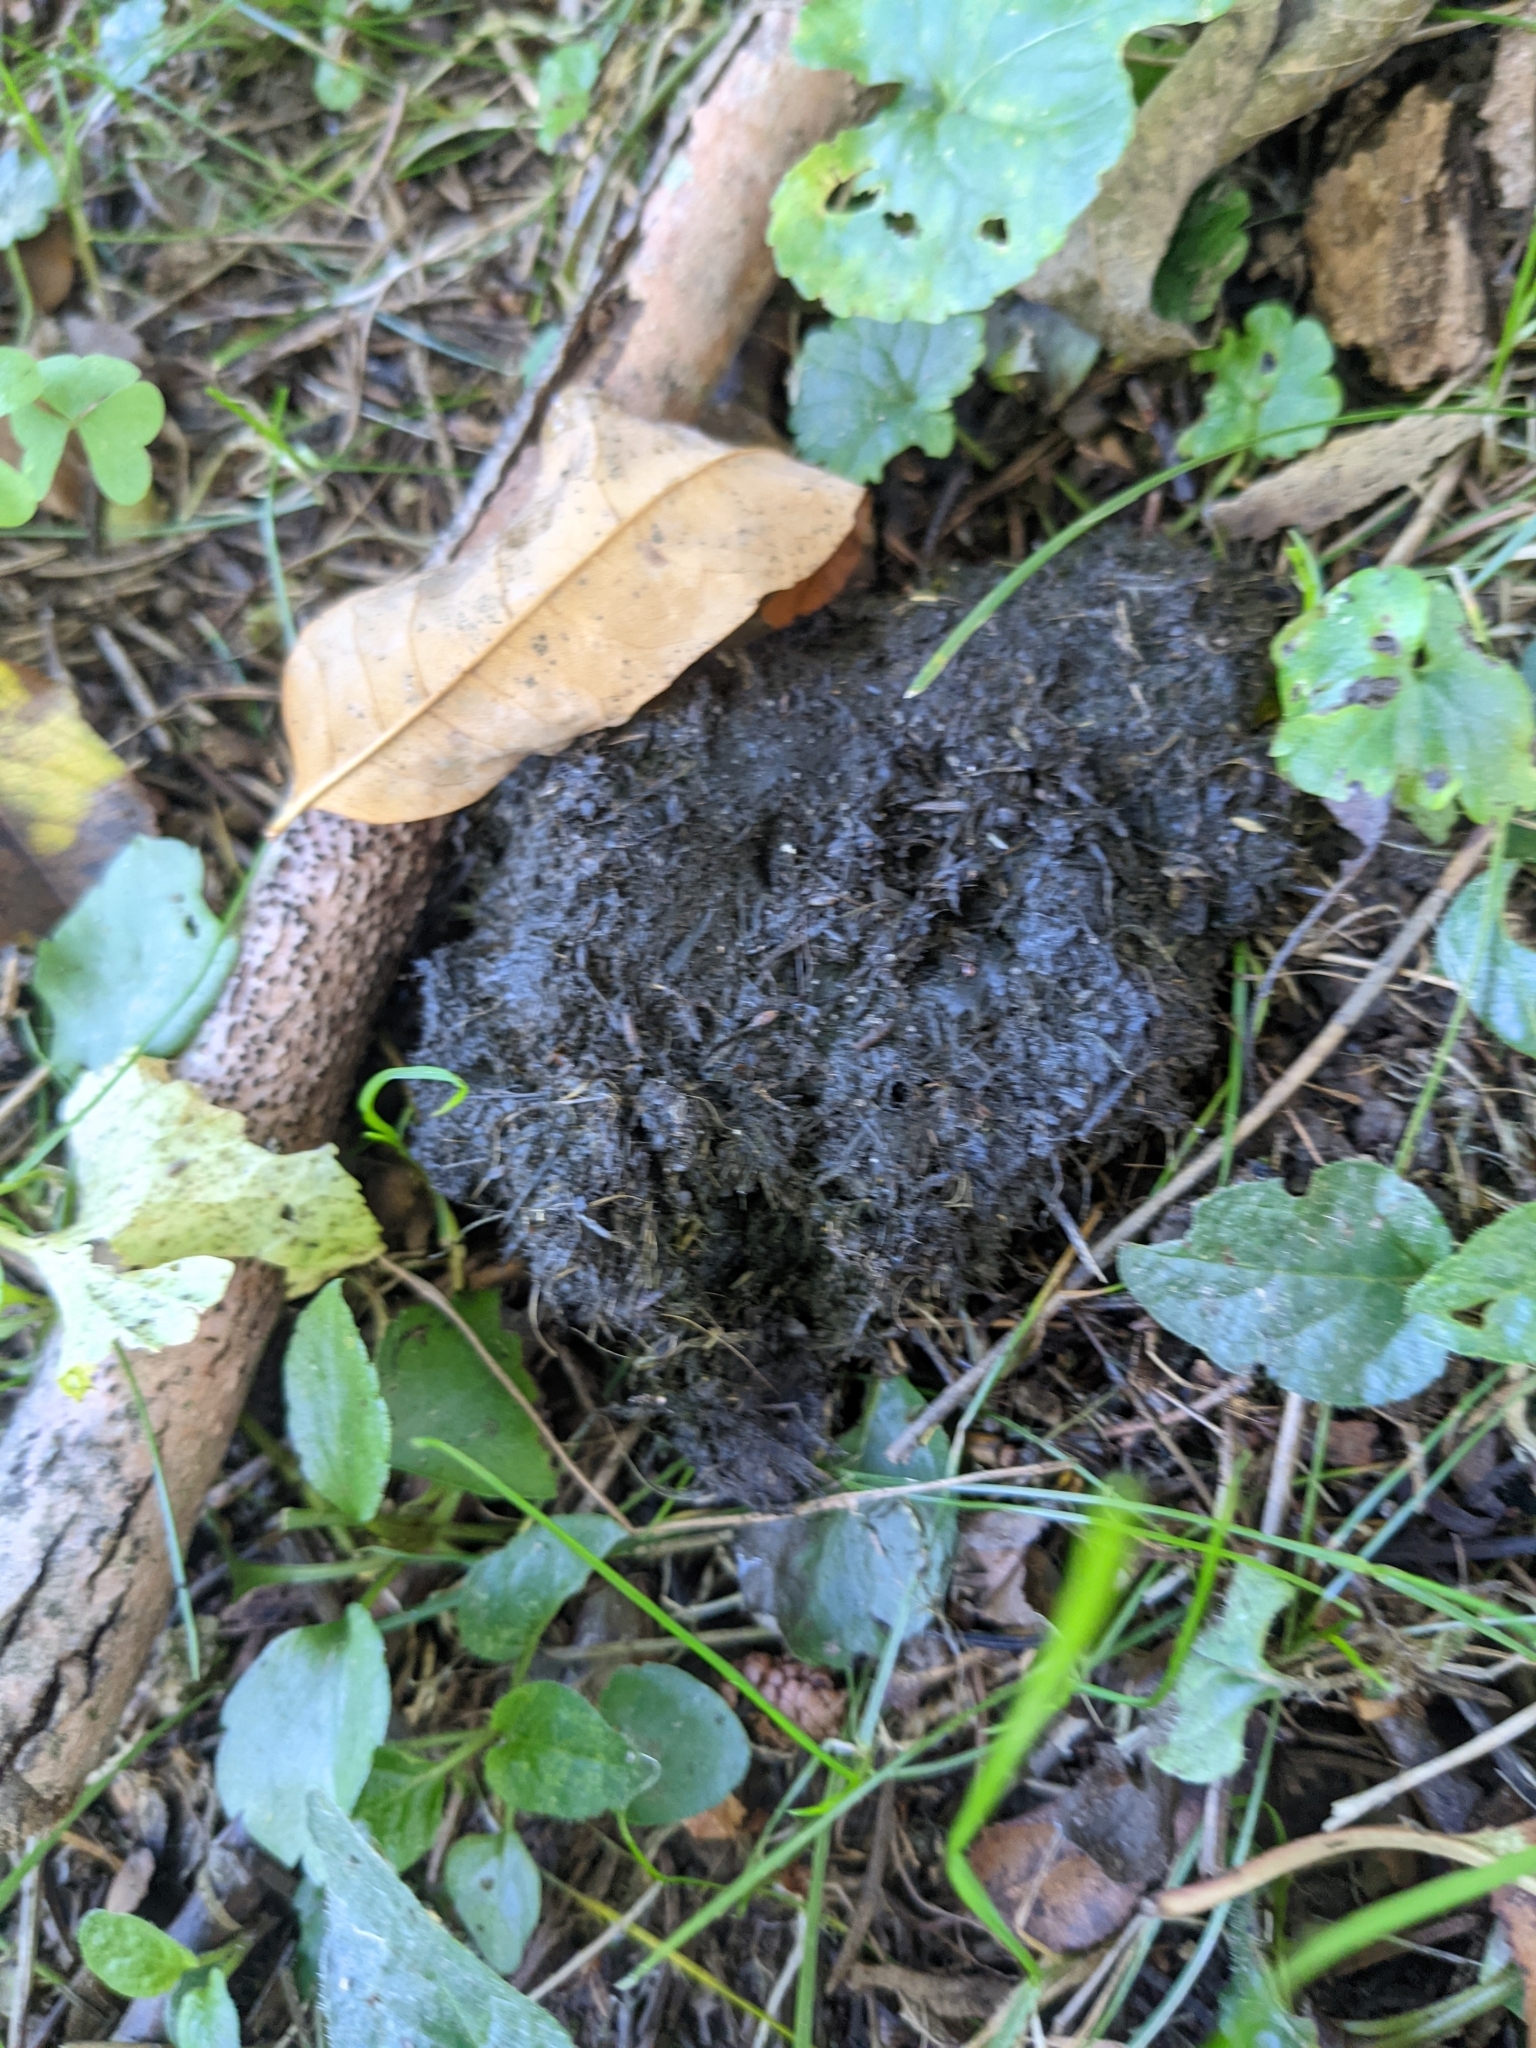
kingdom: Animalia
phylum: Chordata
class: Mammalia
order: Carnivora
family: Ursidae
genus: Ursus
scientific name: Ursus americanus
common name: American black bear
